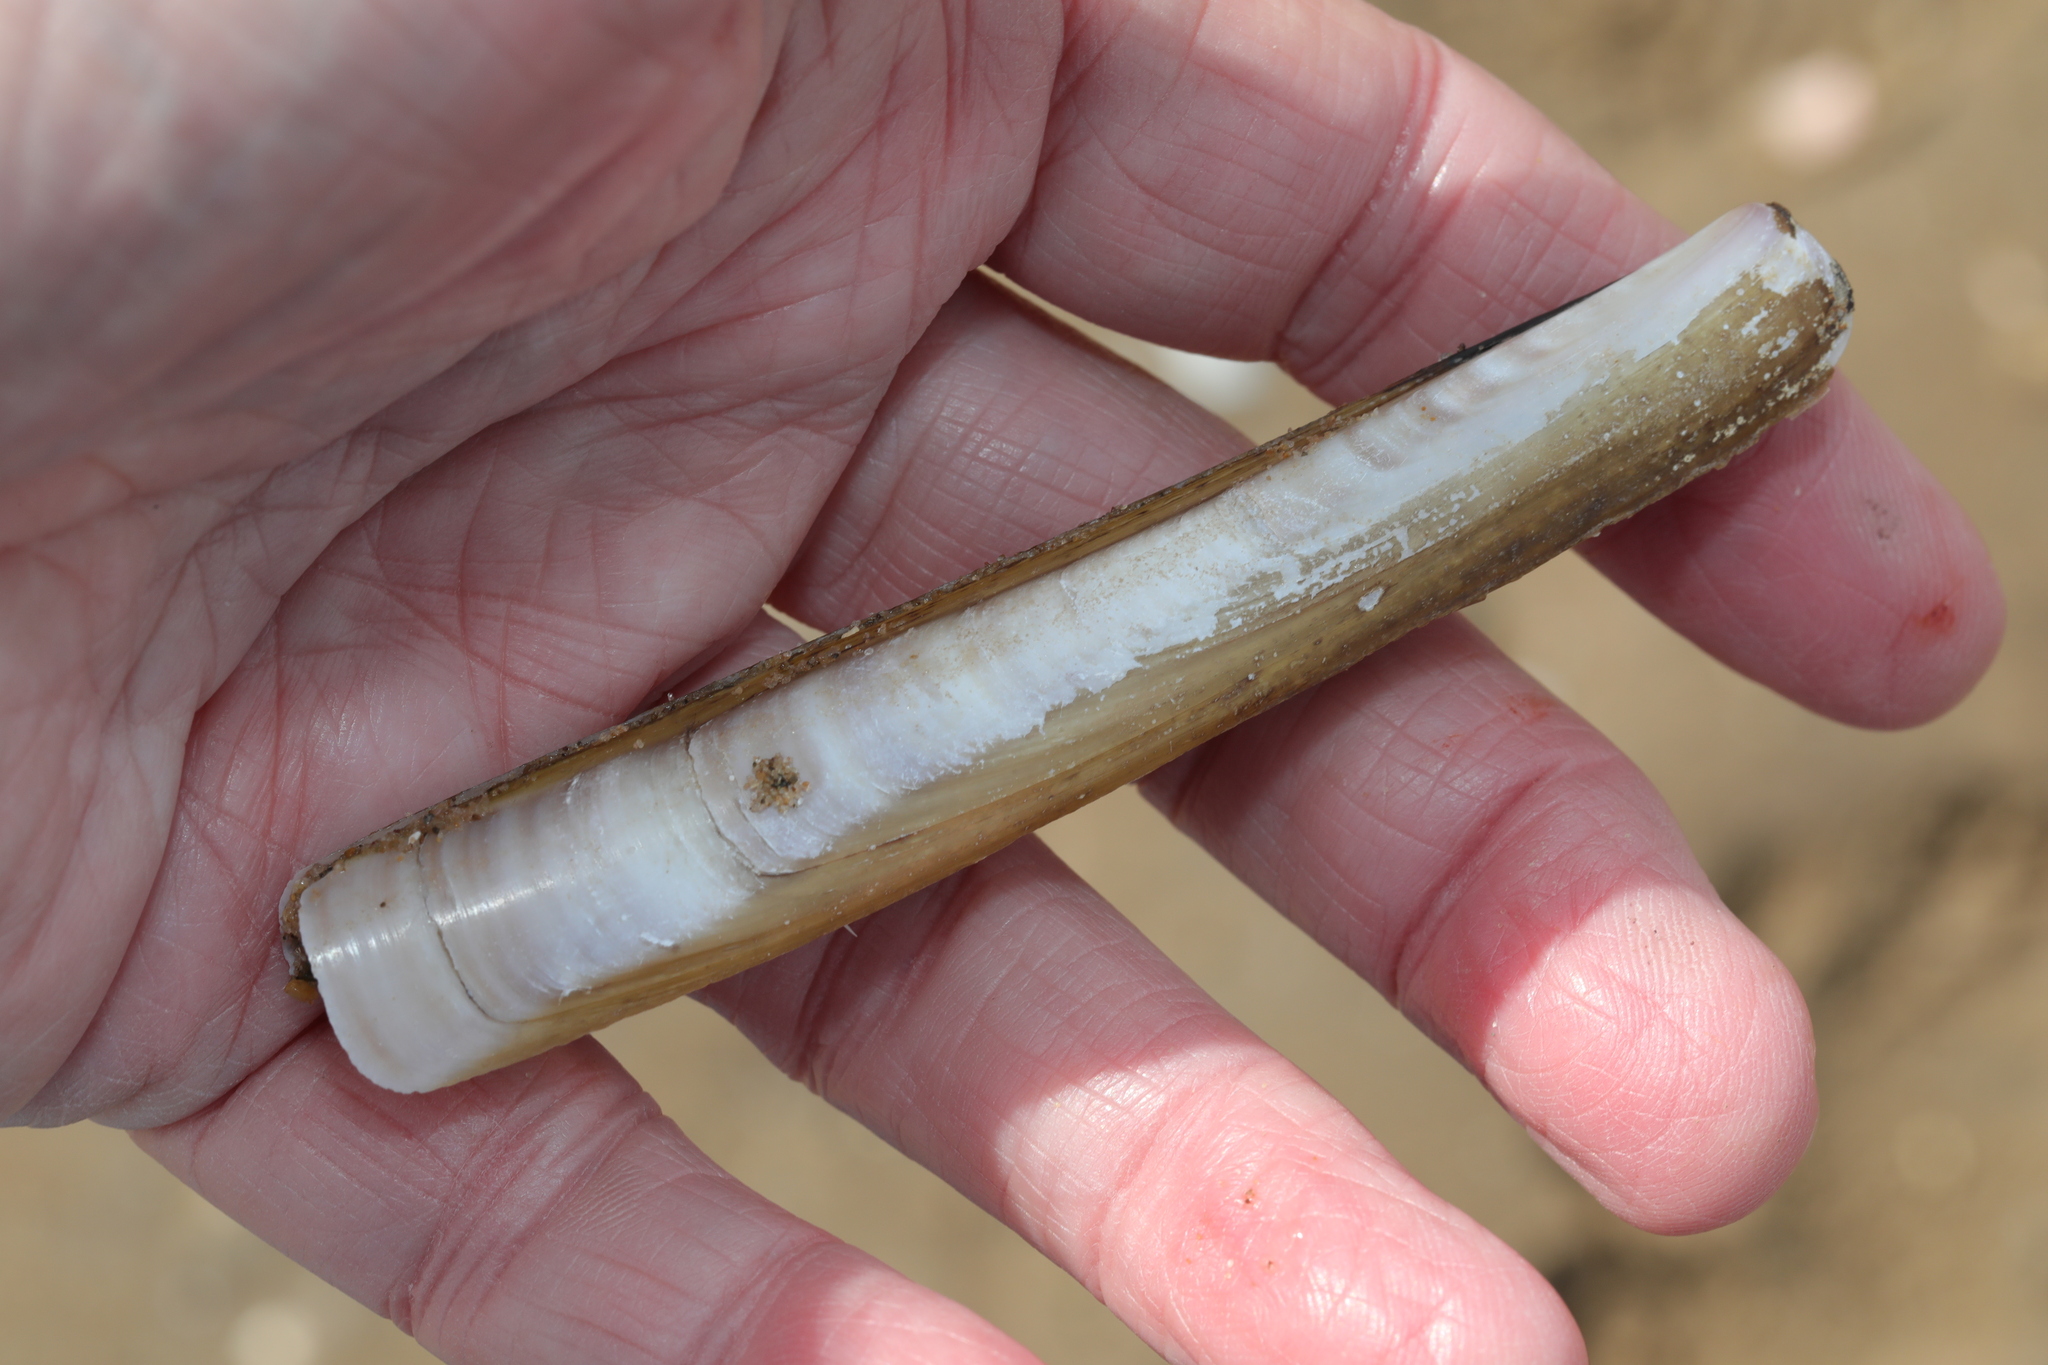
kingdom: Animalia
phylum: Mollusca
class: Bivalvia
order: Adapedonta
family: Pharidae
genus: Ensis
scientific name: Ensis leei
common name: American jack knife clam
